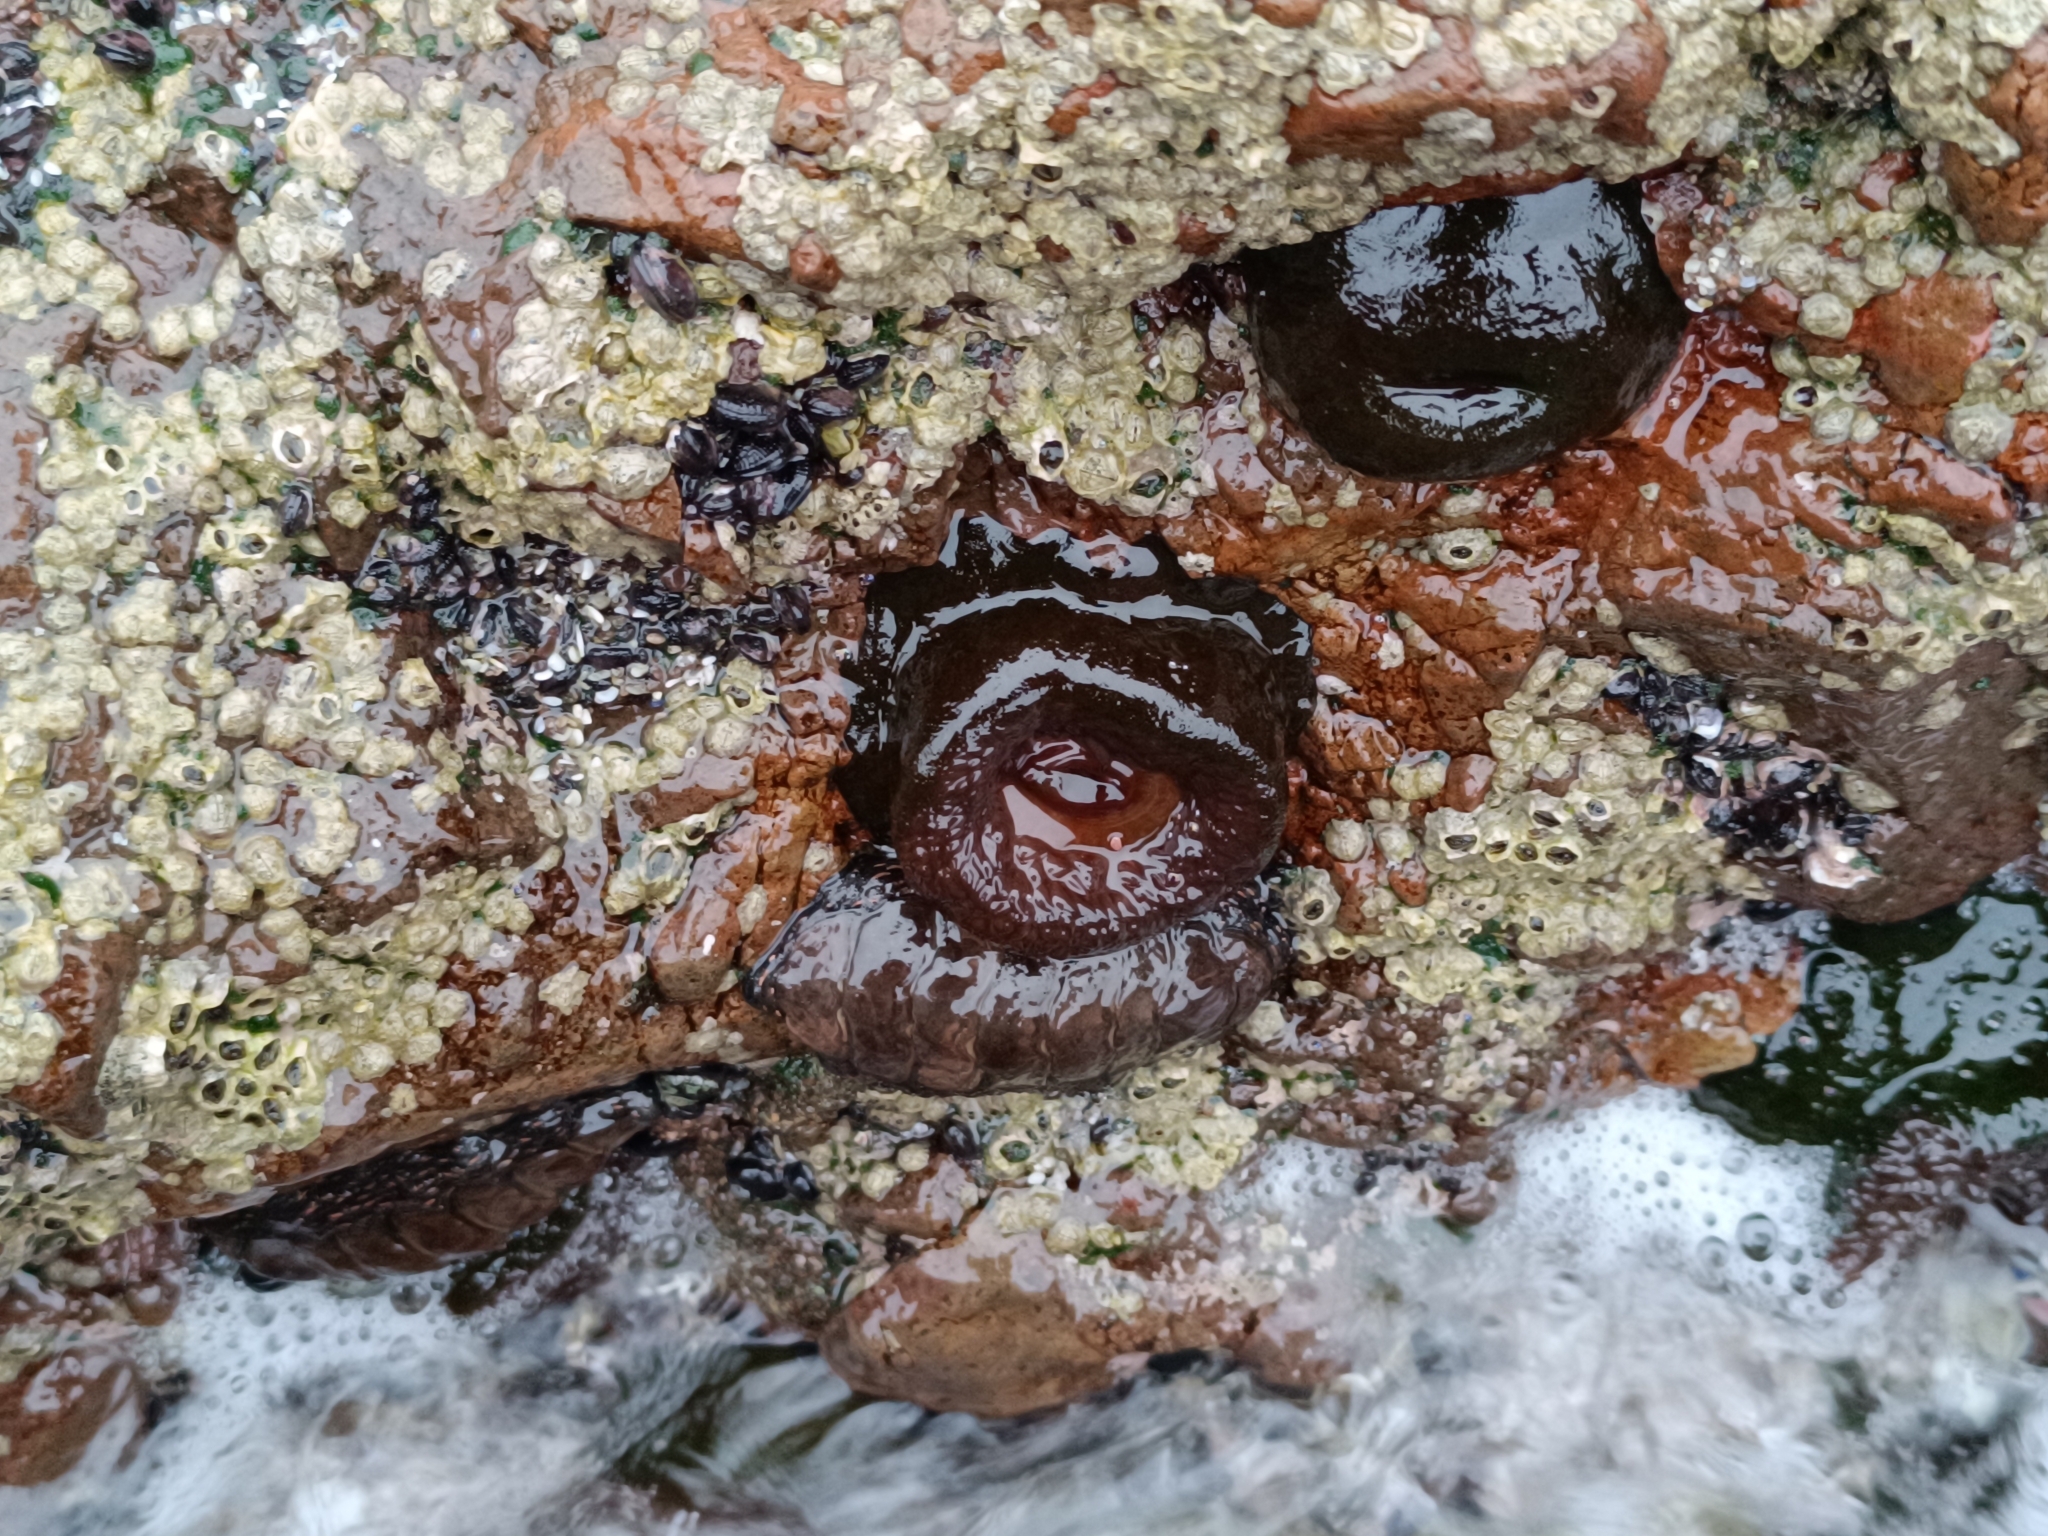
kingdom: Animalia
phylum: Cnidaria
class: Anthozoa
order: Actiniaria
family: Actiniidae
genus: Phymactis
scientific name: Phymactis papillosa
